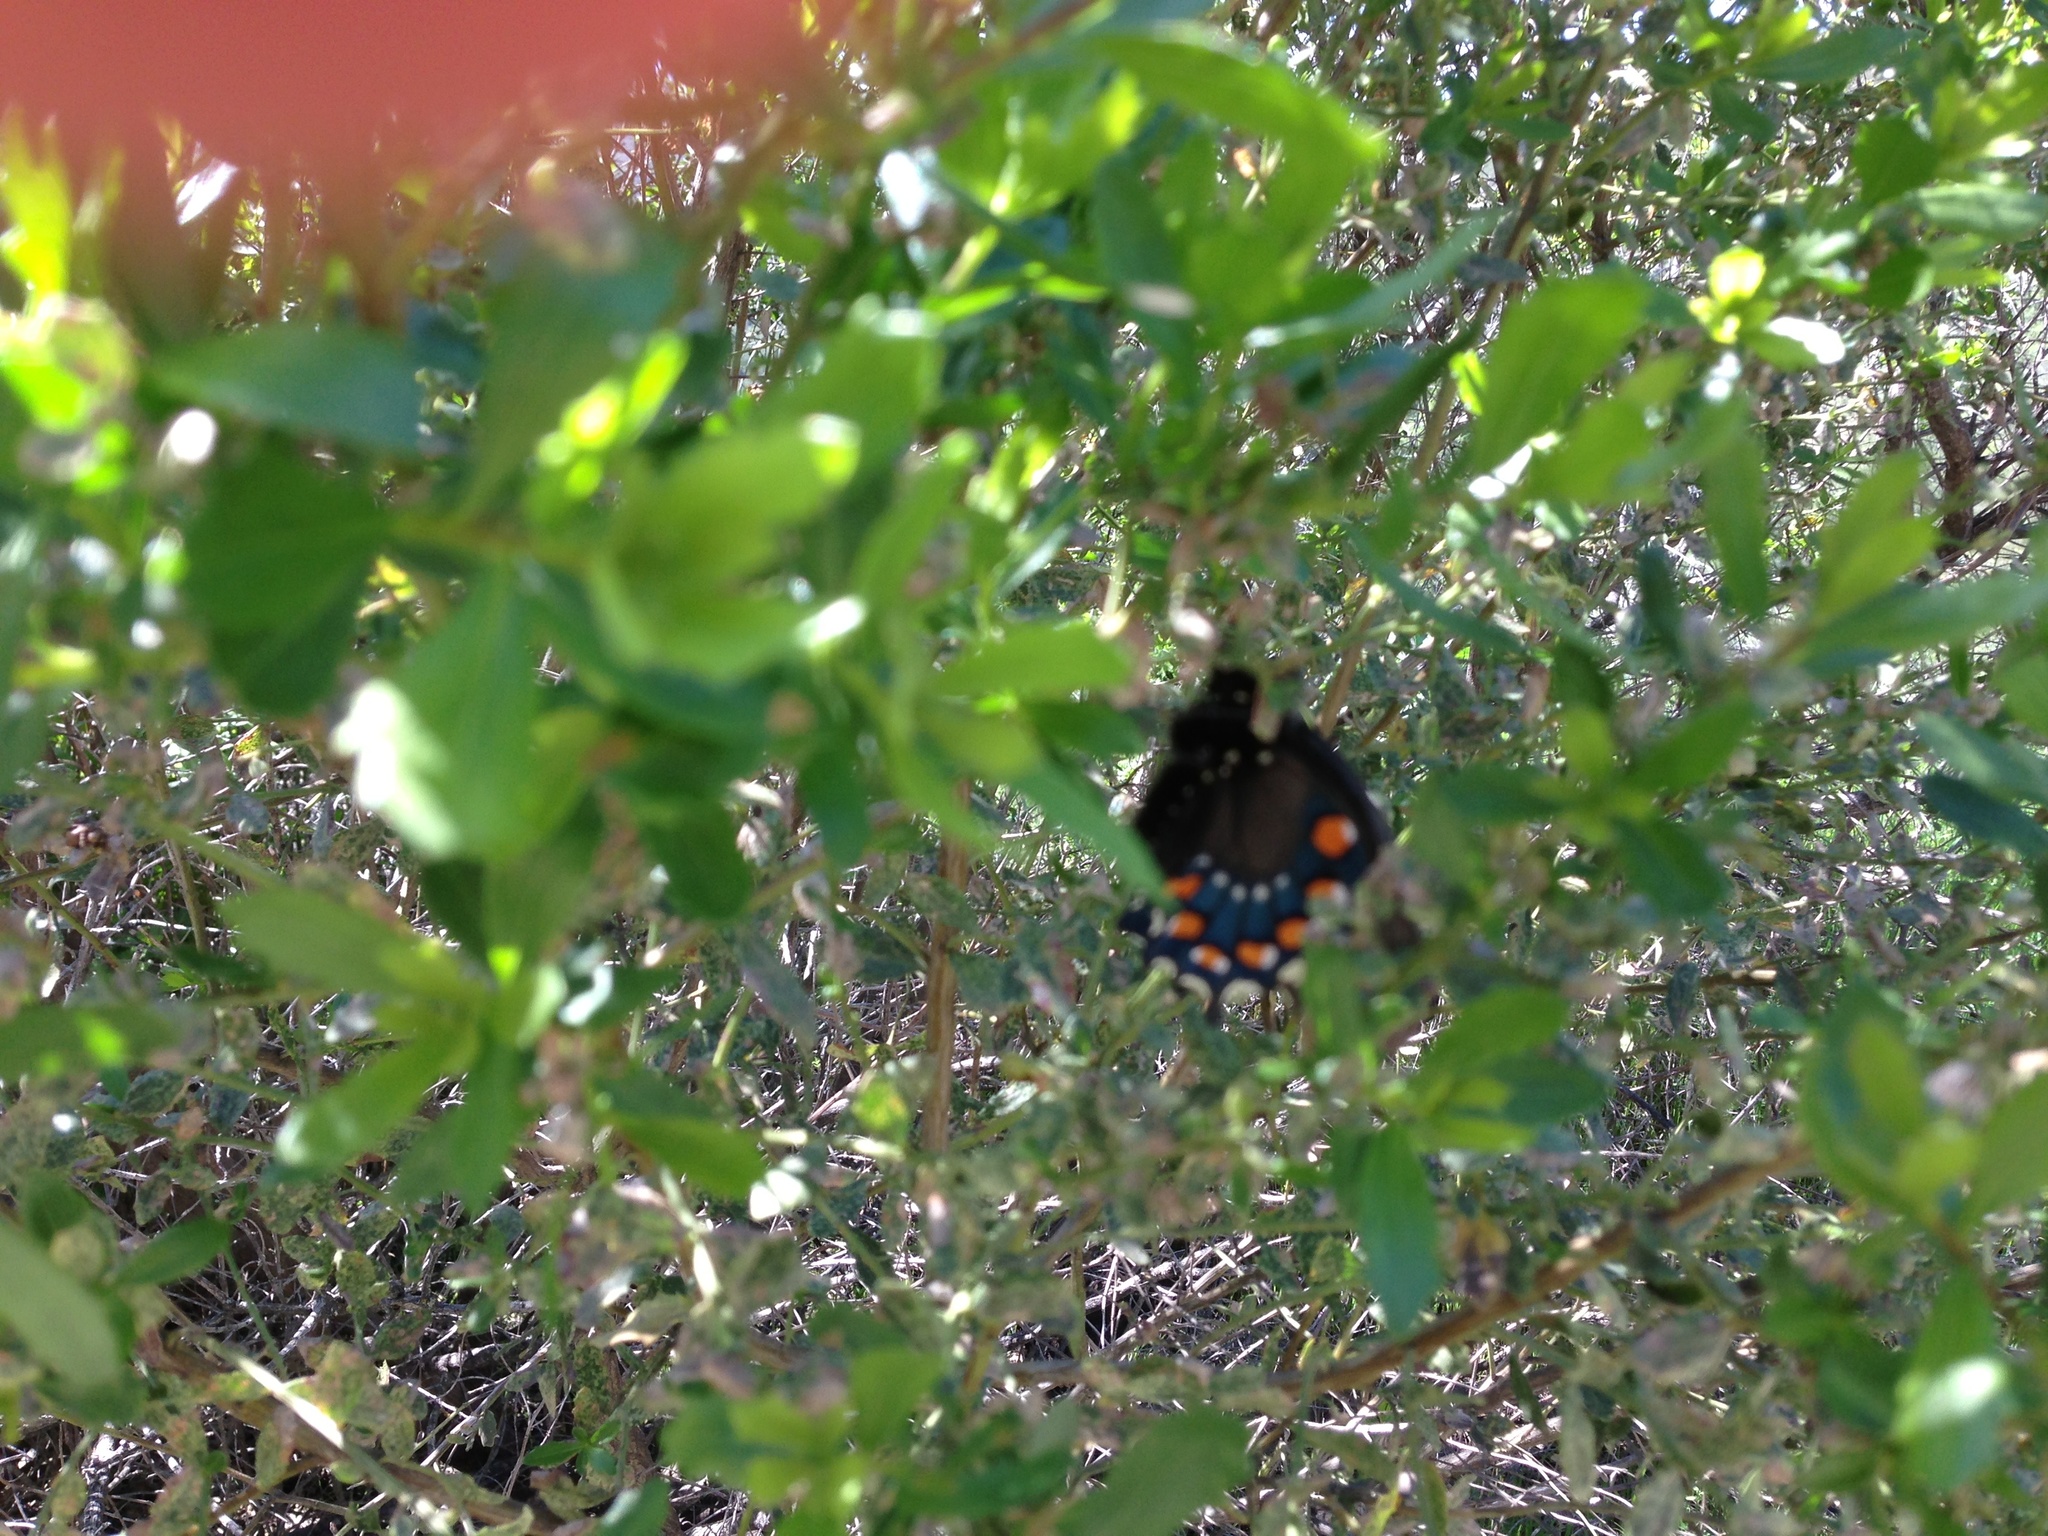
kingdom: Animalia
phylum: Arthropoda
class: Insecta
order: Lepidoptera
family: Papilionidae
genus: Battus
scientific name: Battus philenor
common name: Pipevine swallowtail
